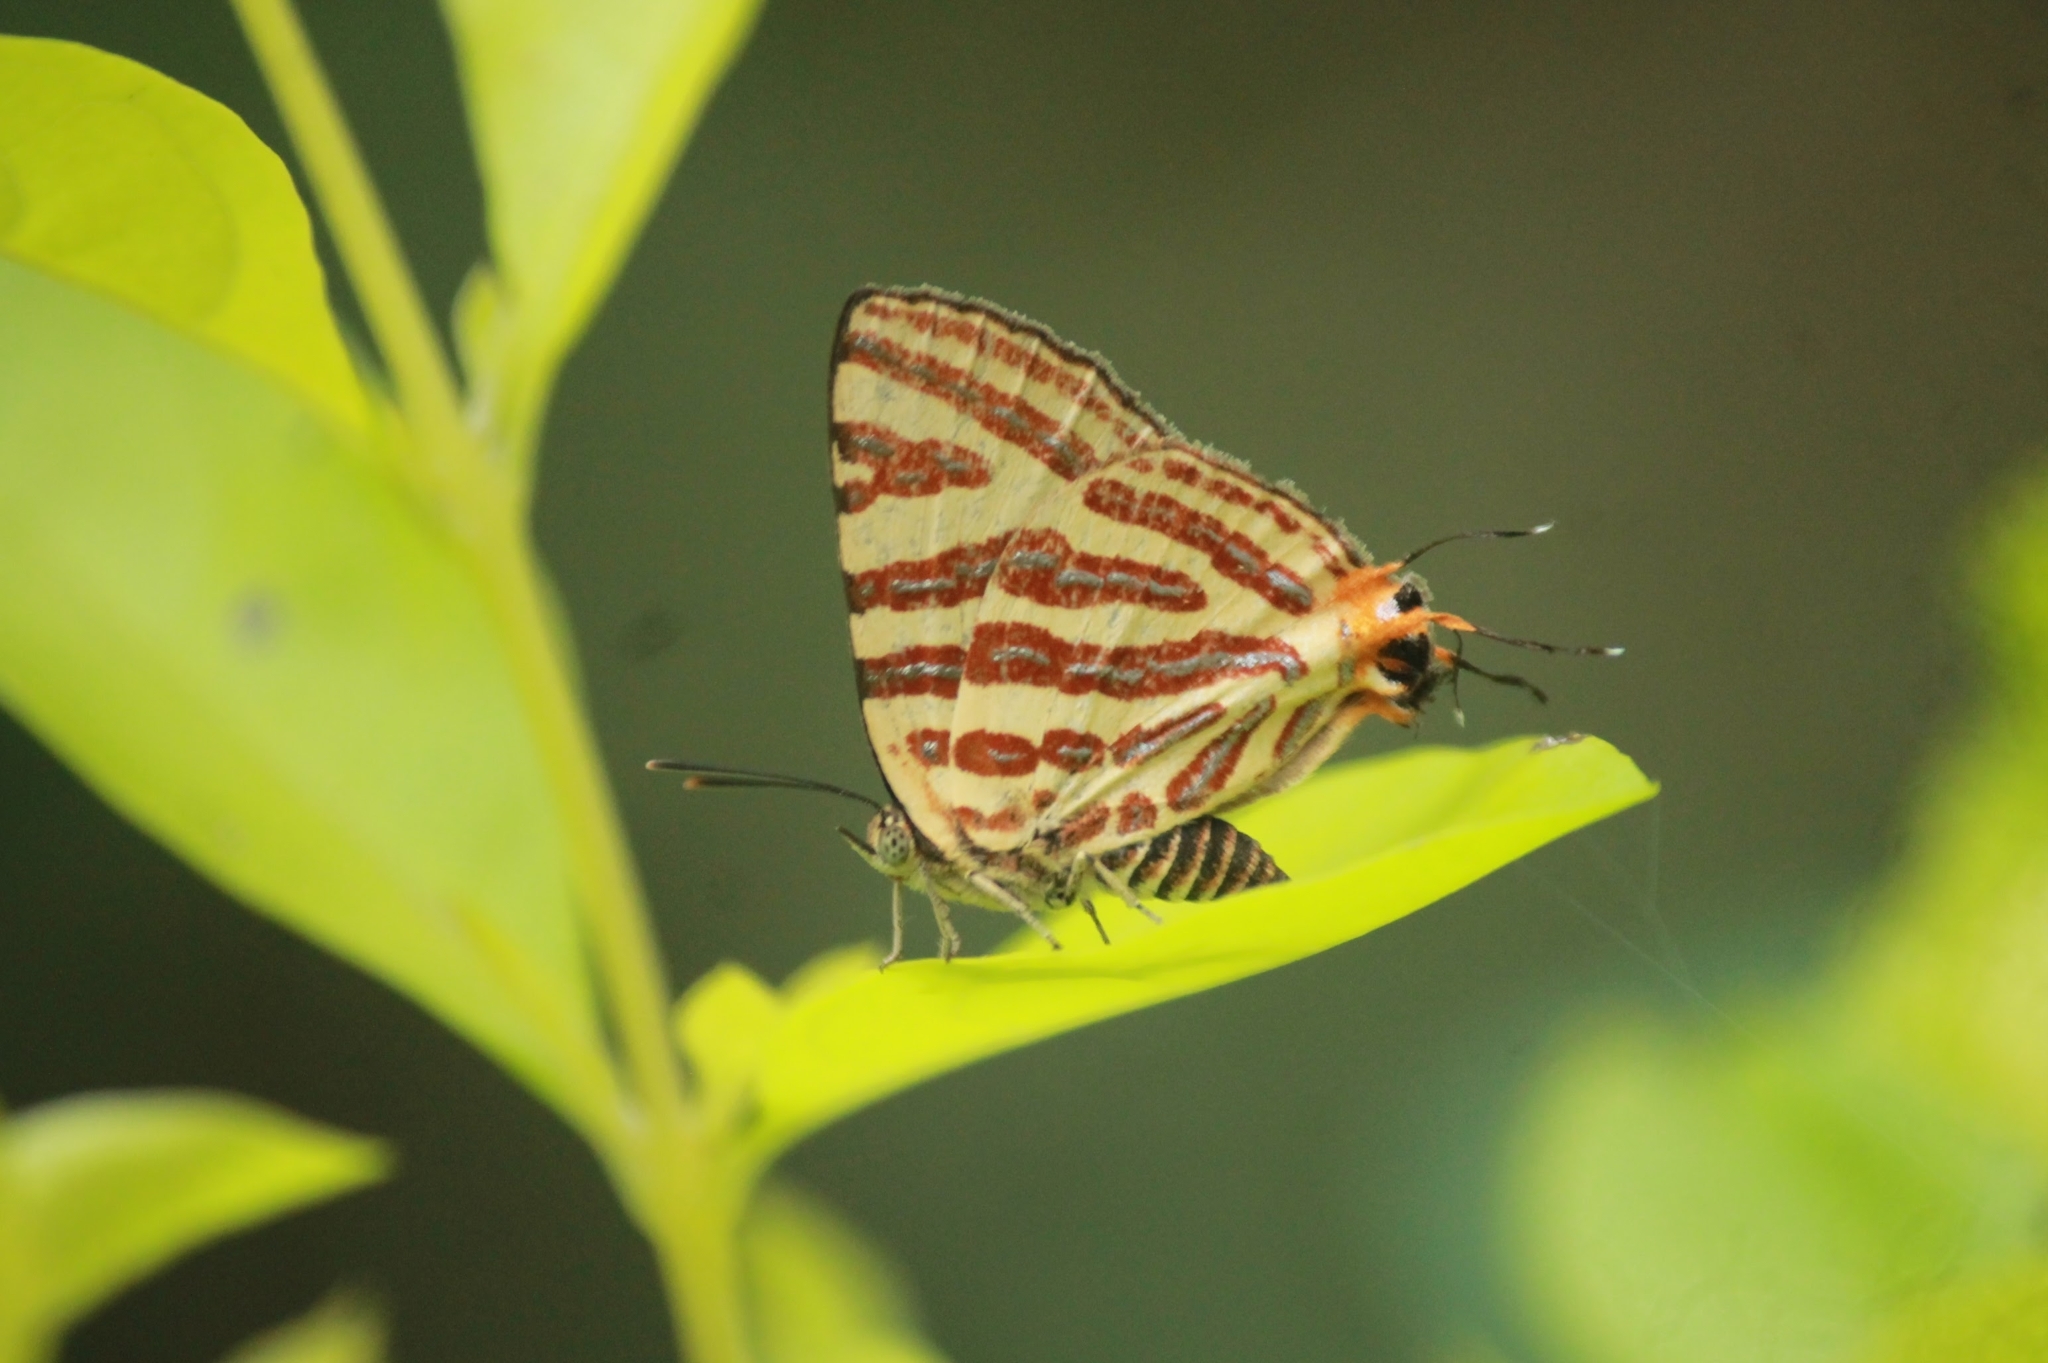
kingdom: Animalia
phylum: Arthropoda
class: Insecta
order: Lepidoptera
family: Lycaenidae
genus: Cigaritis
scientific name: Cigaritis lohita
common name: Long-banded silverline
